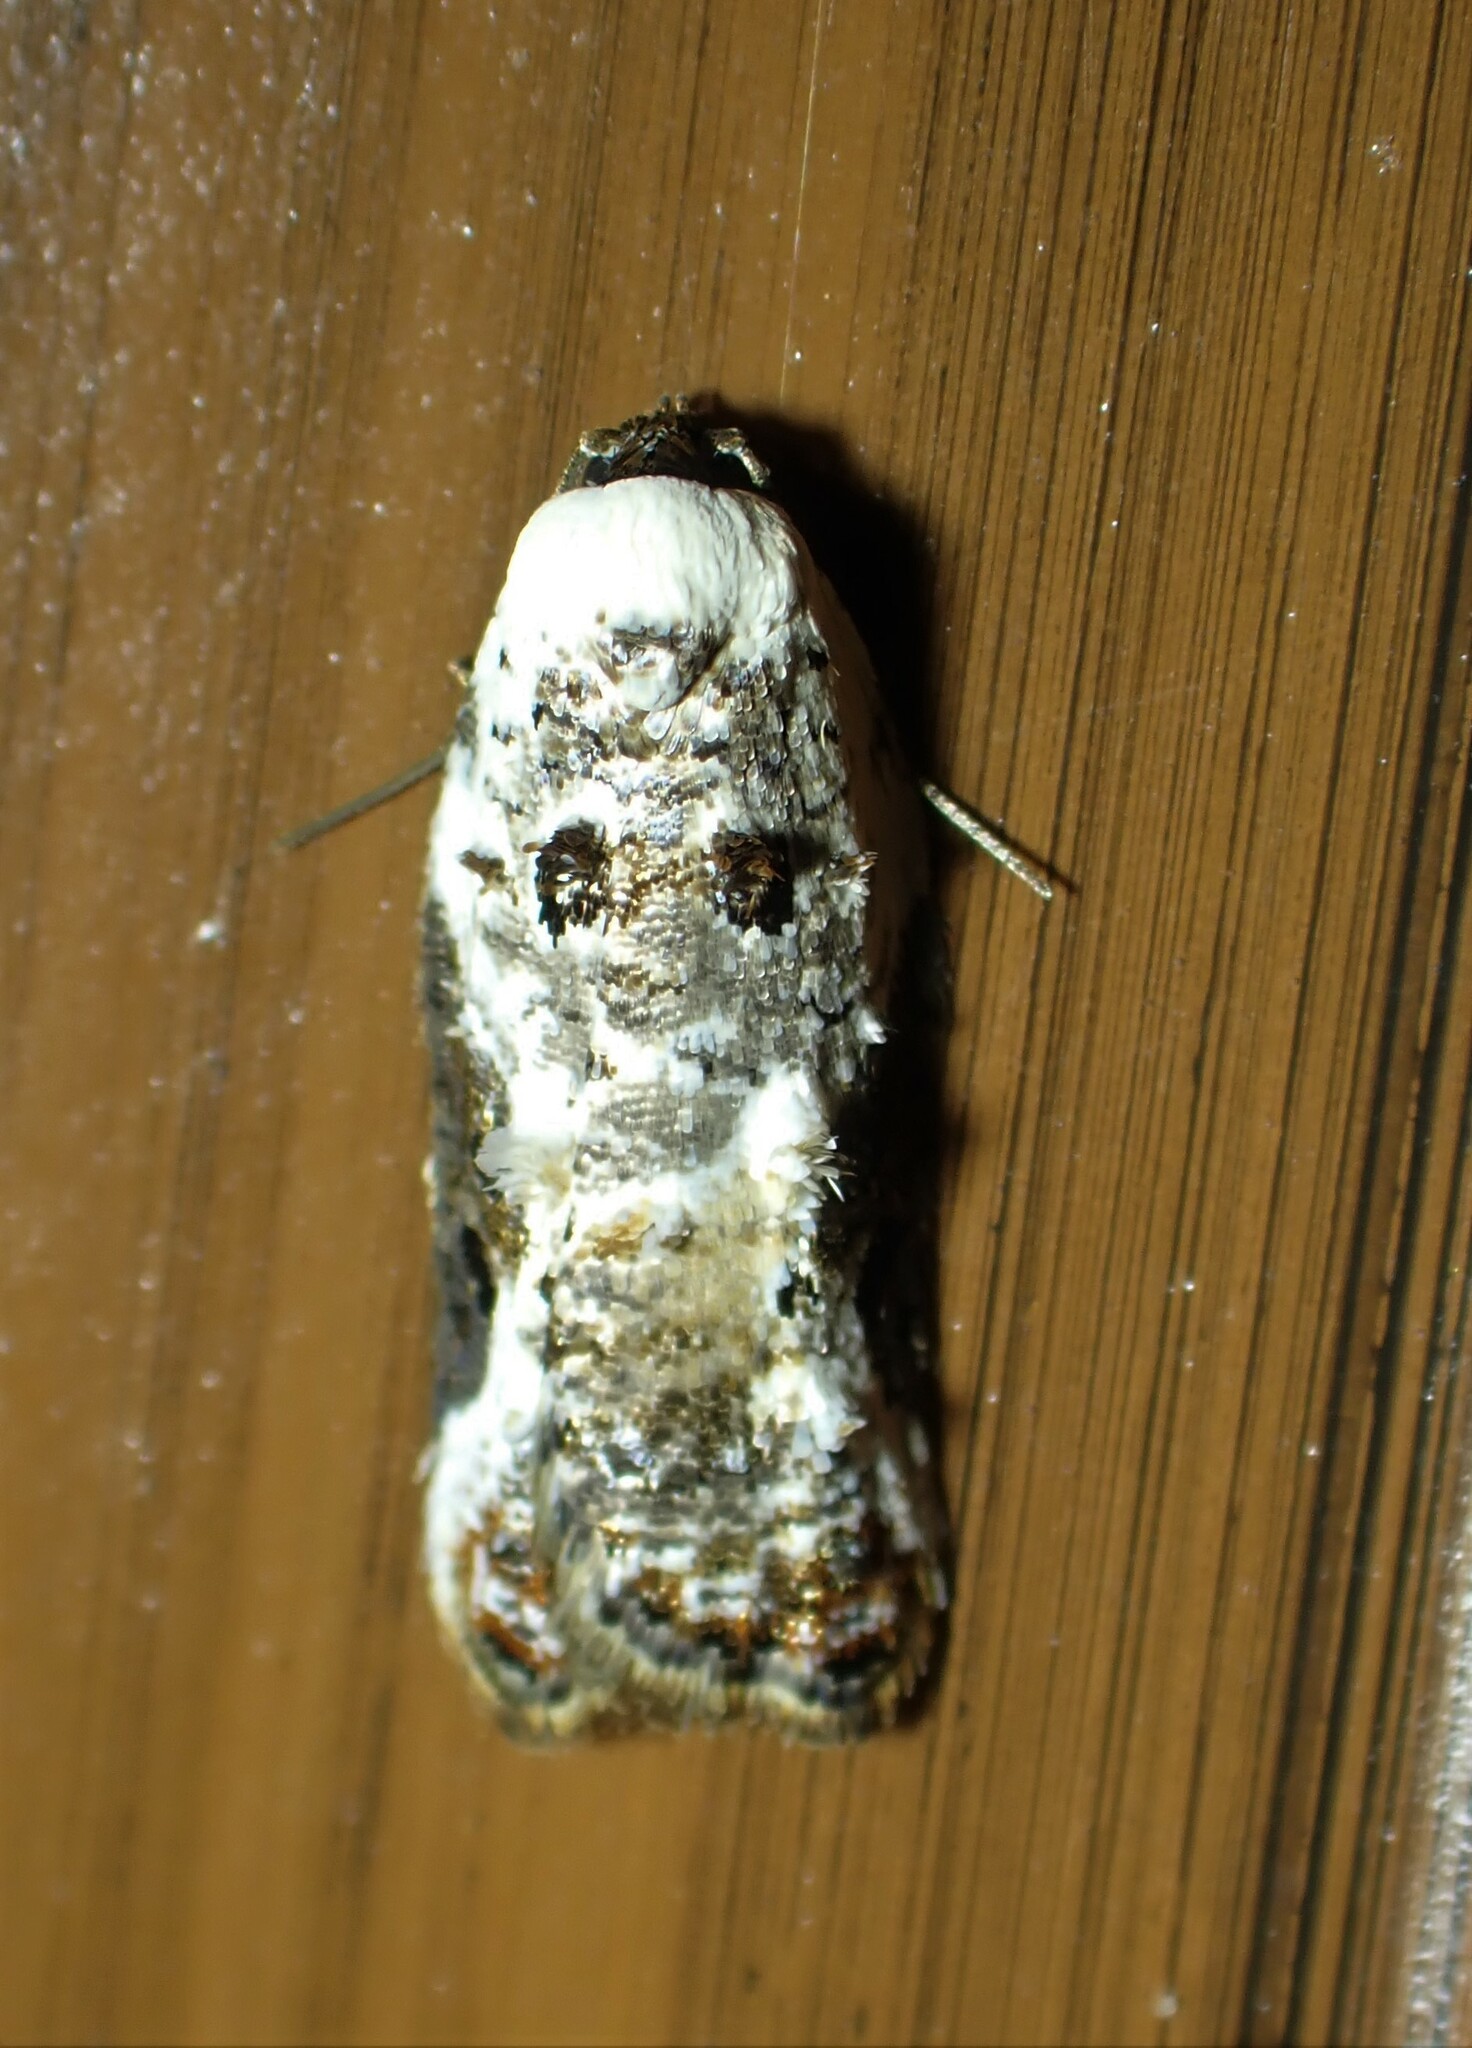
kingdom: Animalia
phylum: Arthropoda
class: Insecta
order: Lepidoptera
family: Tortricidae
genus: Acleris
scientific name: Acleris nivisellana
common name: Snowy-shouldered acleris moth
